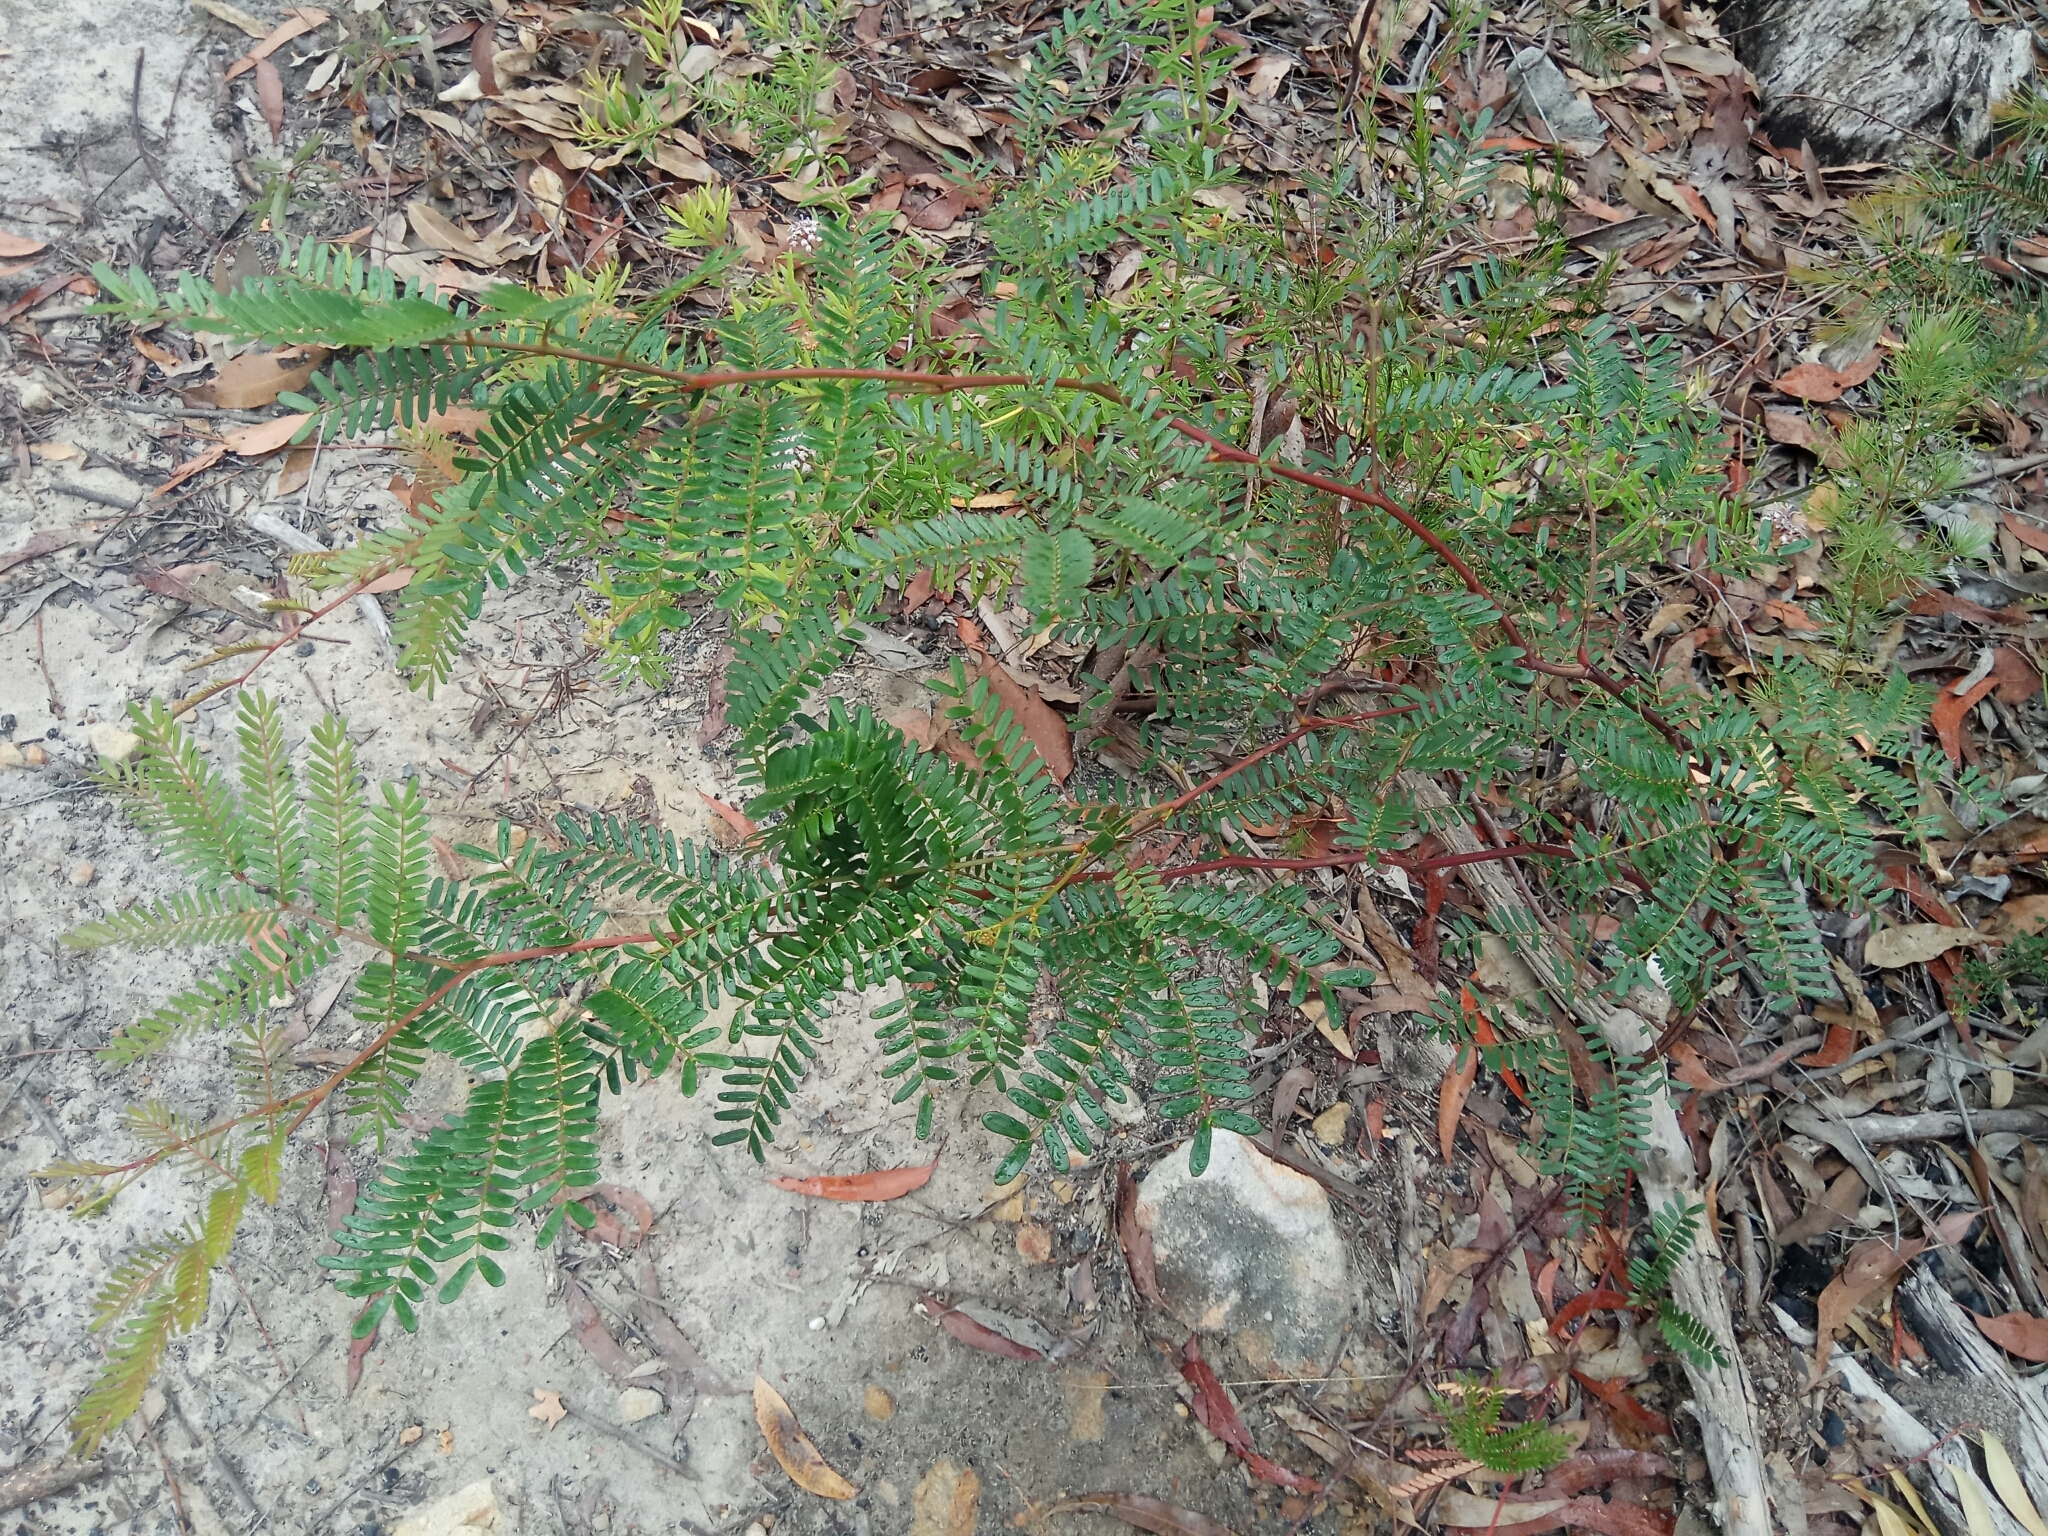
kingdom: Plantae
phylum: Tracheophyta
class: Magnoliopsida
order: Fabales
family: Fabaceae
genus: Acacia
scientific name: Acacia terminalis
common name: Cedar wattle
